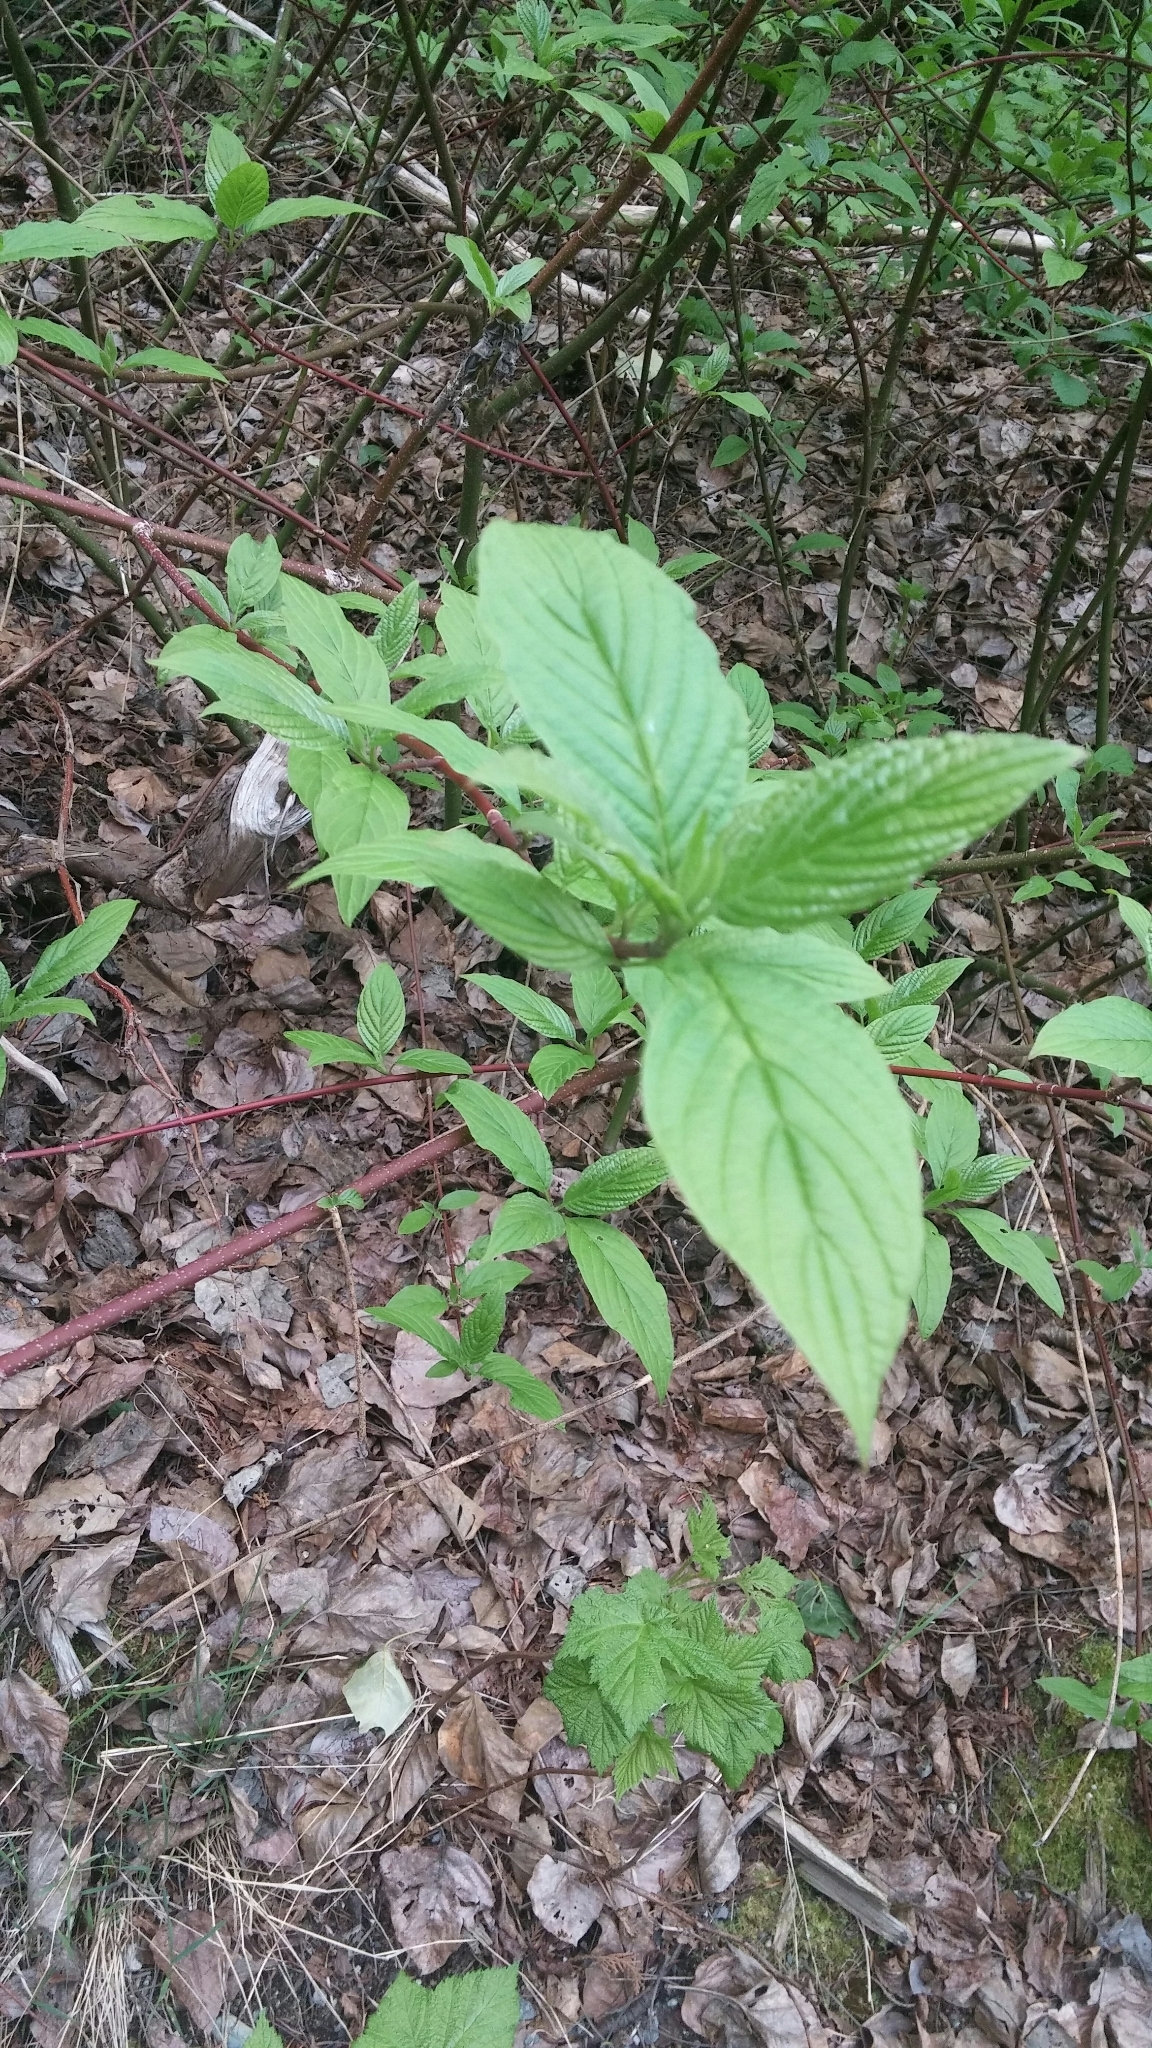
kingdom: Plantae
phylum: Tracheophyta
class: Magnoliopsida
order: Cornales
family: Cornaceae
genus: Cornus
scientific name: Cornus sericea
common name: Red-osier dogwood
